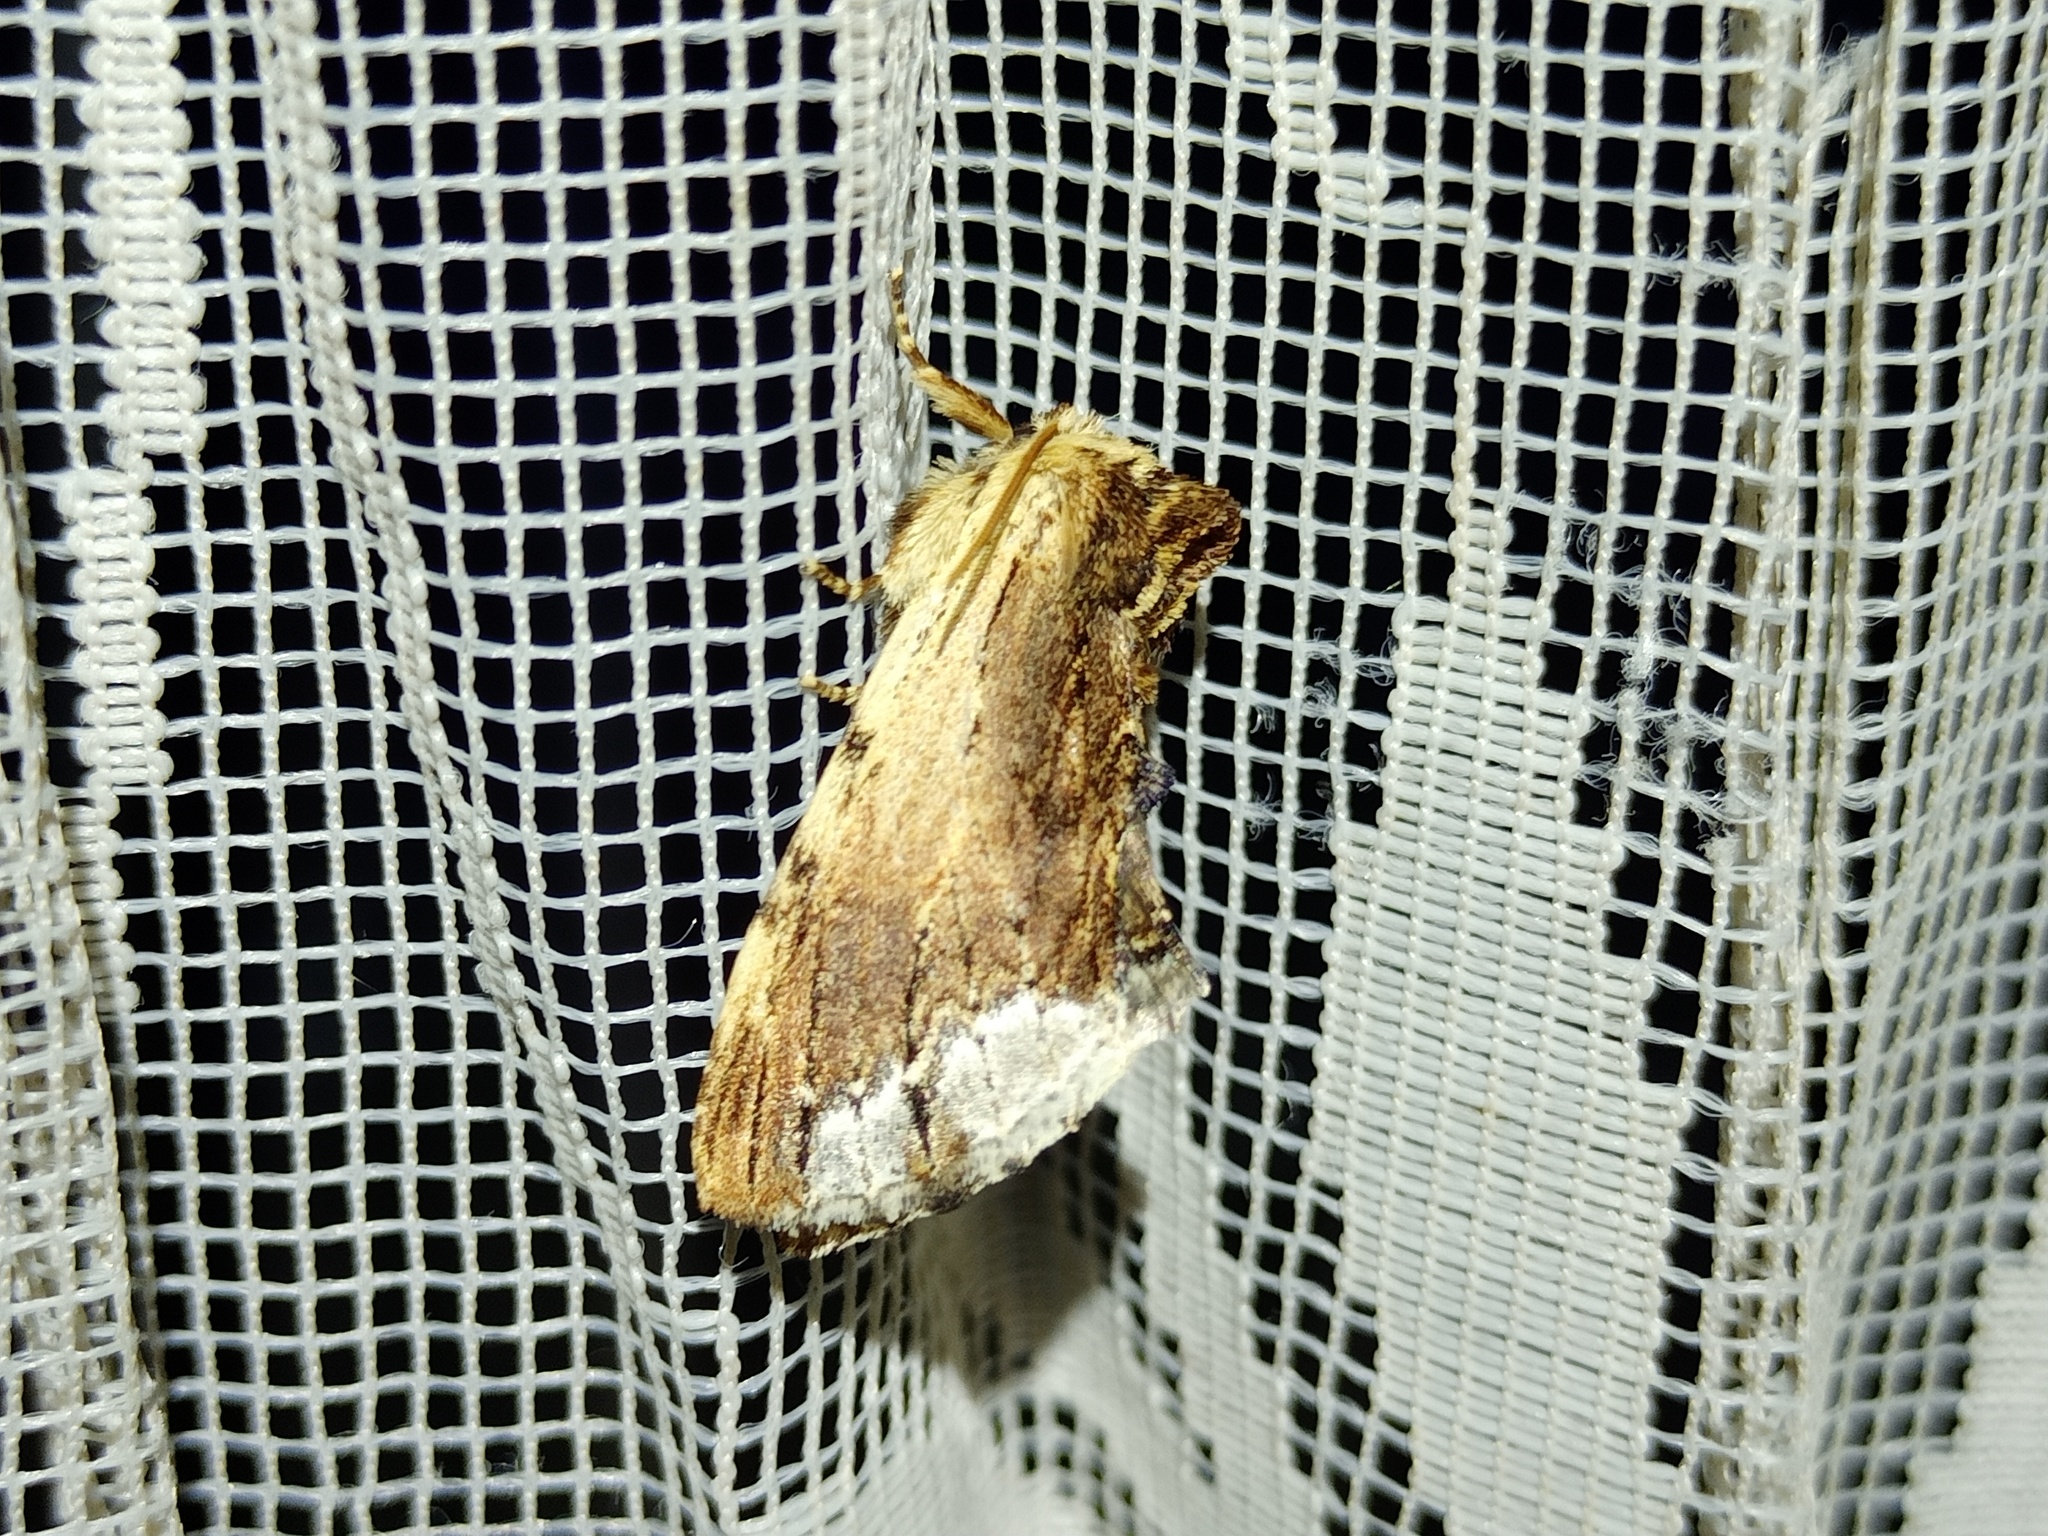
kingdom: Animalia
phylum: Arthropoda
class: Insecta
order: Lepidoptera
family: Notodontidae
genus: Ptilodon
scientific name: Ptilodon cucullina
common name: Maple prominent
